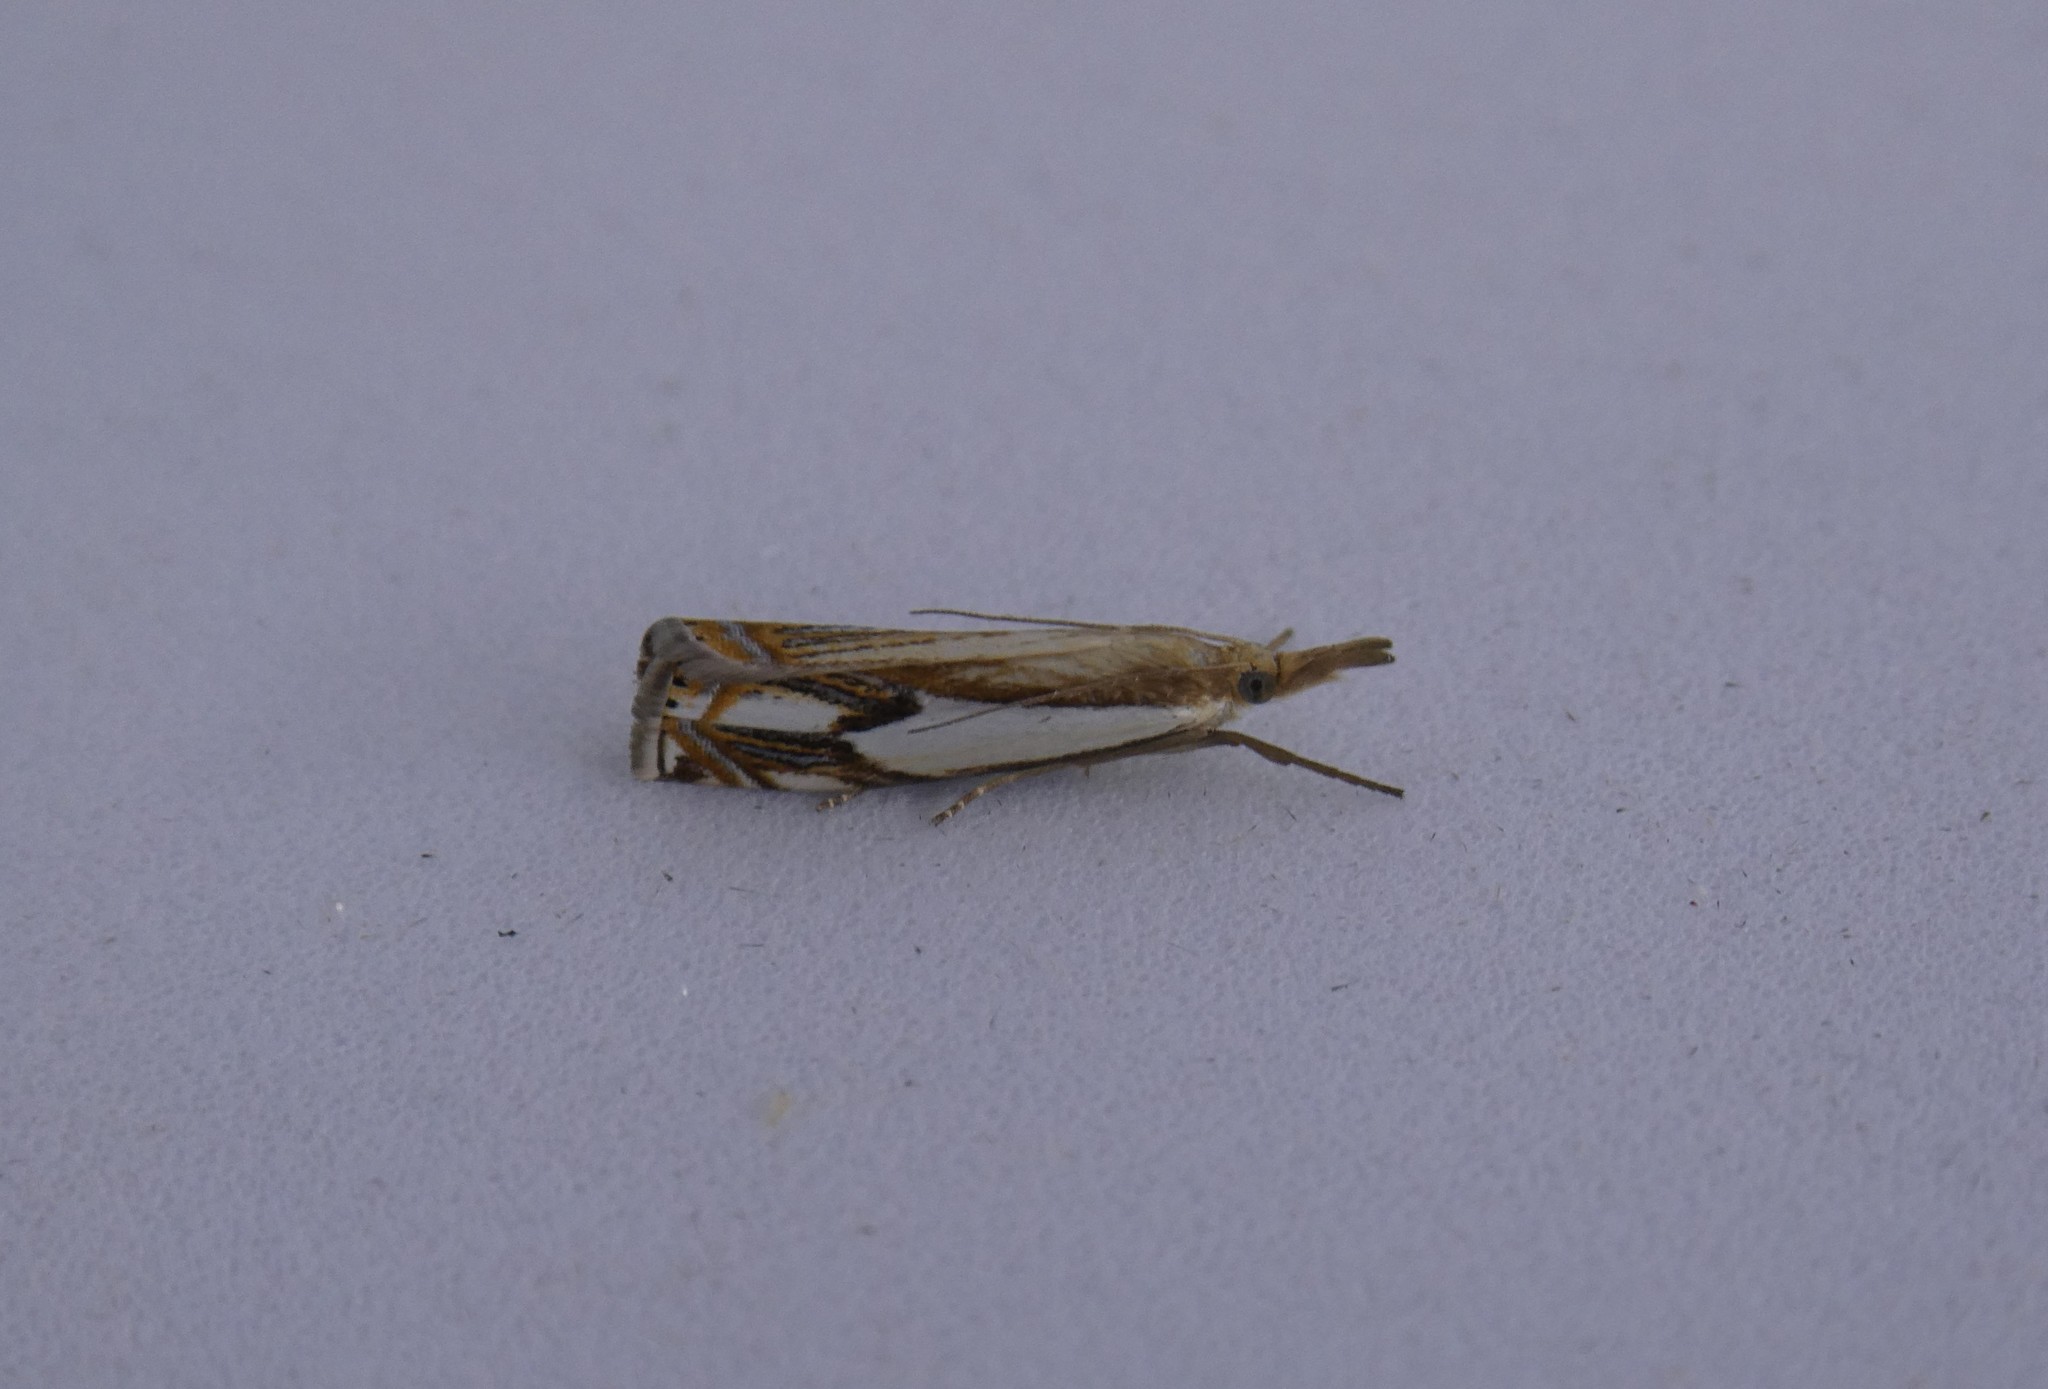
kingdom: Animalia
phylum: Arthropoda
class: Insecta
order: Lepidoptera
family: Crambidae
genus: Crambus
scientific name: Crambus agitatellus
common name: Double-banded grass-veneer
